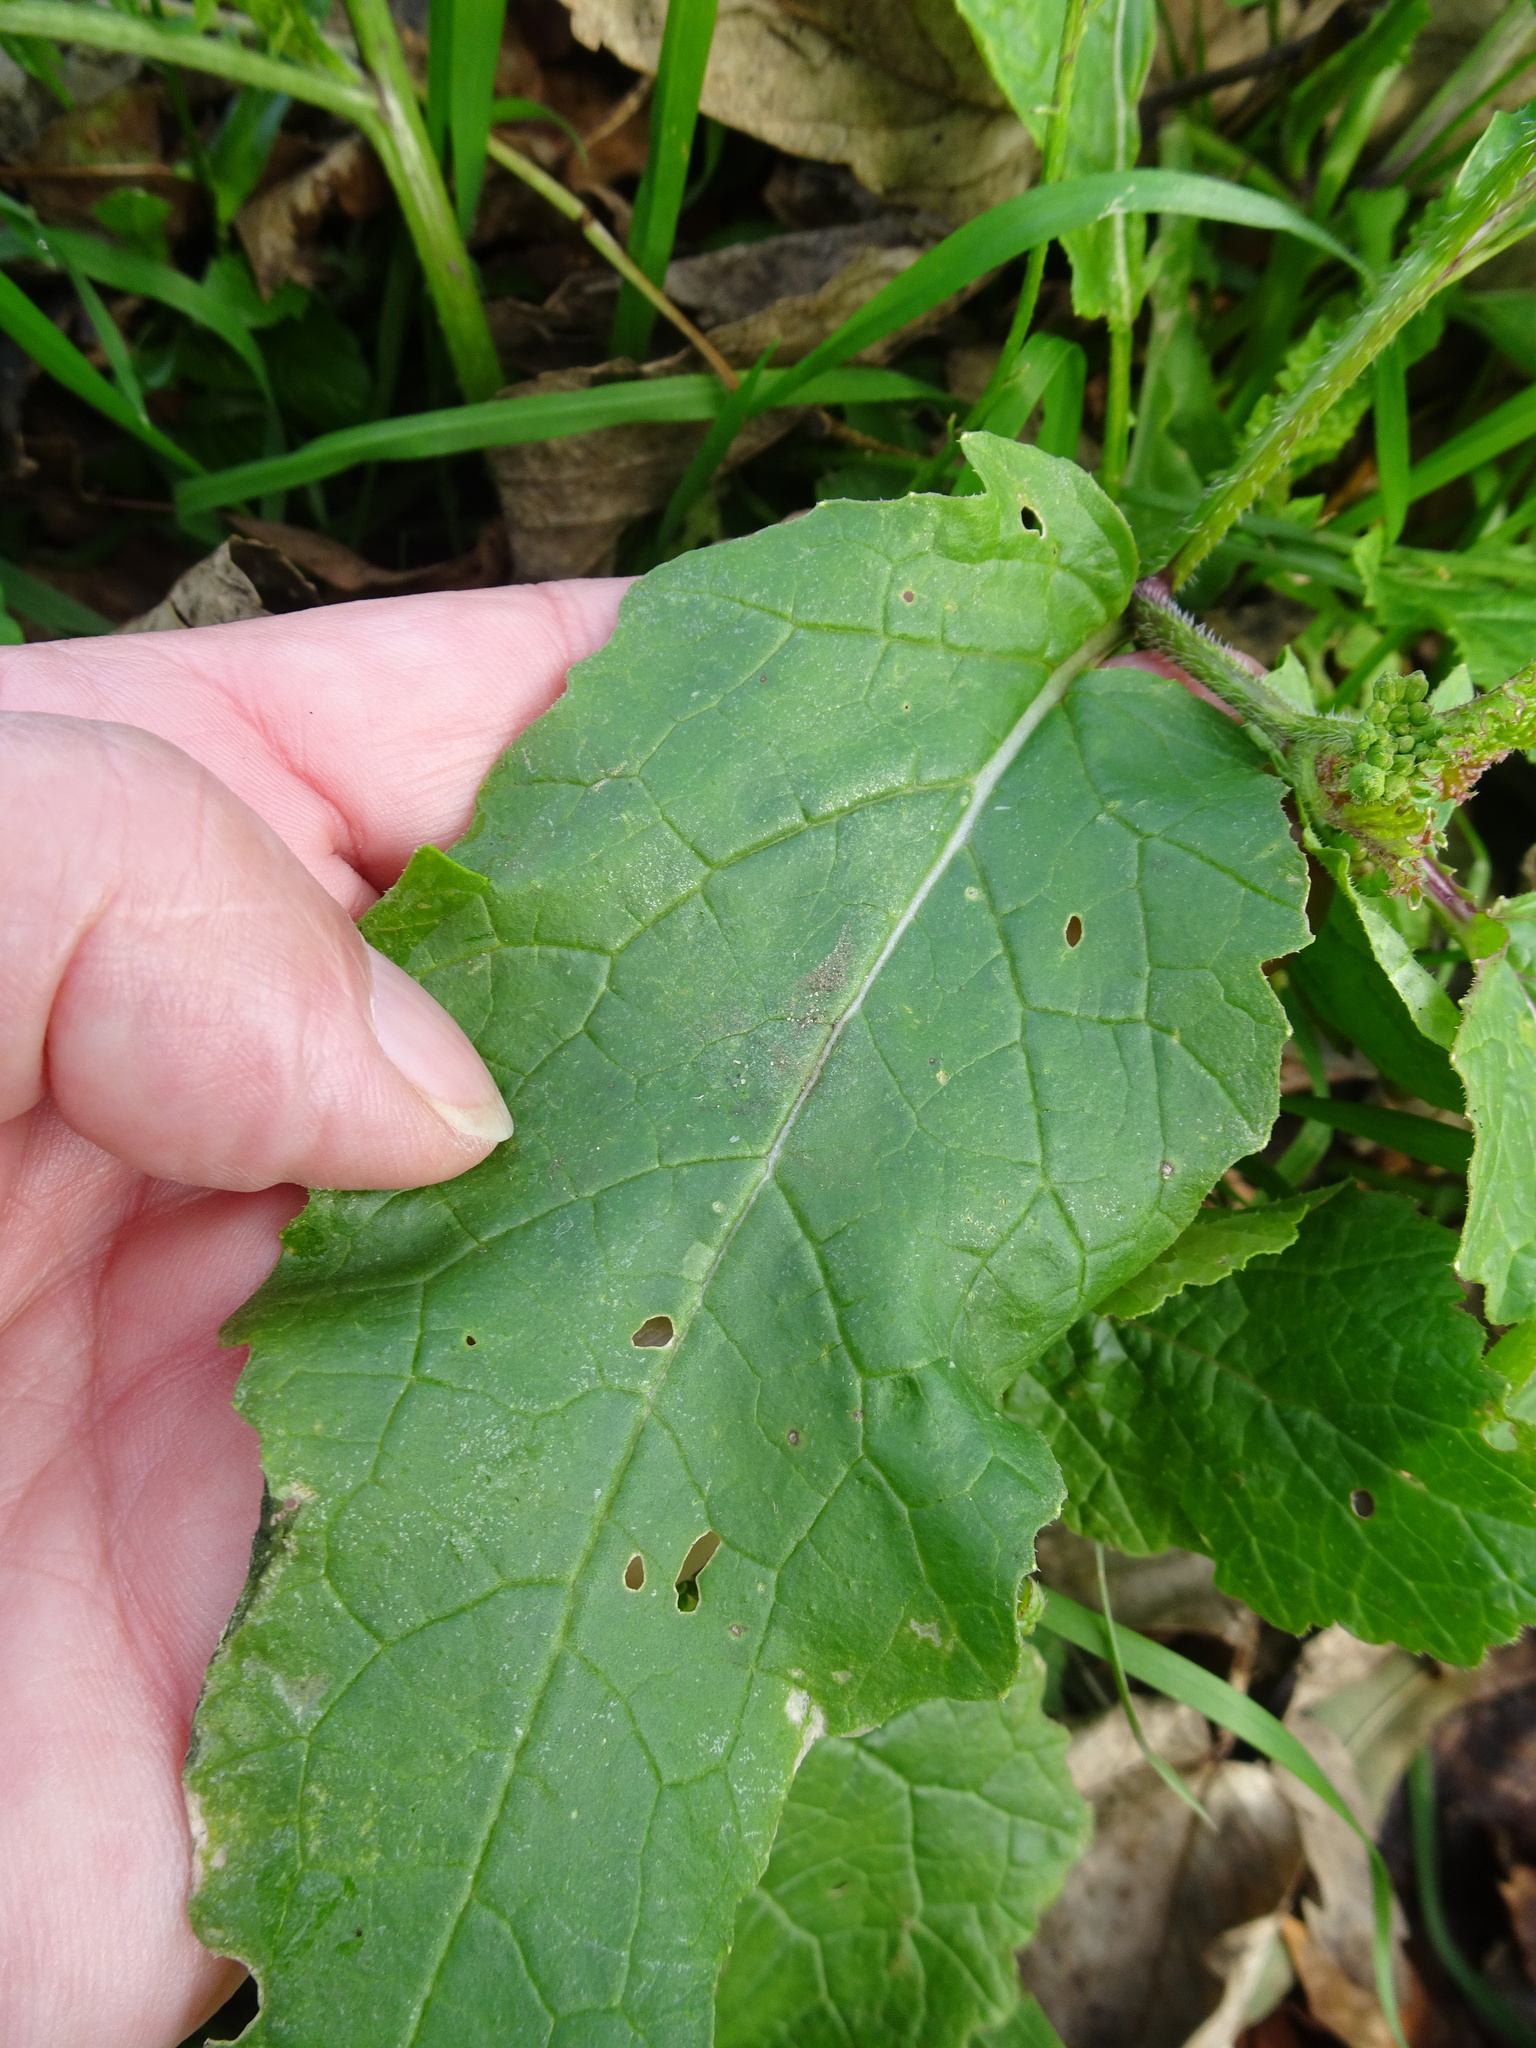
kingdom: Plantae
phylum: Tracheophyta
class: Magnoliopsida
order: Brassicales
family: Brassicaceae
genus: Sinapis
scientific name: Sinapis arvensis
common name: Charlock
